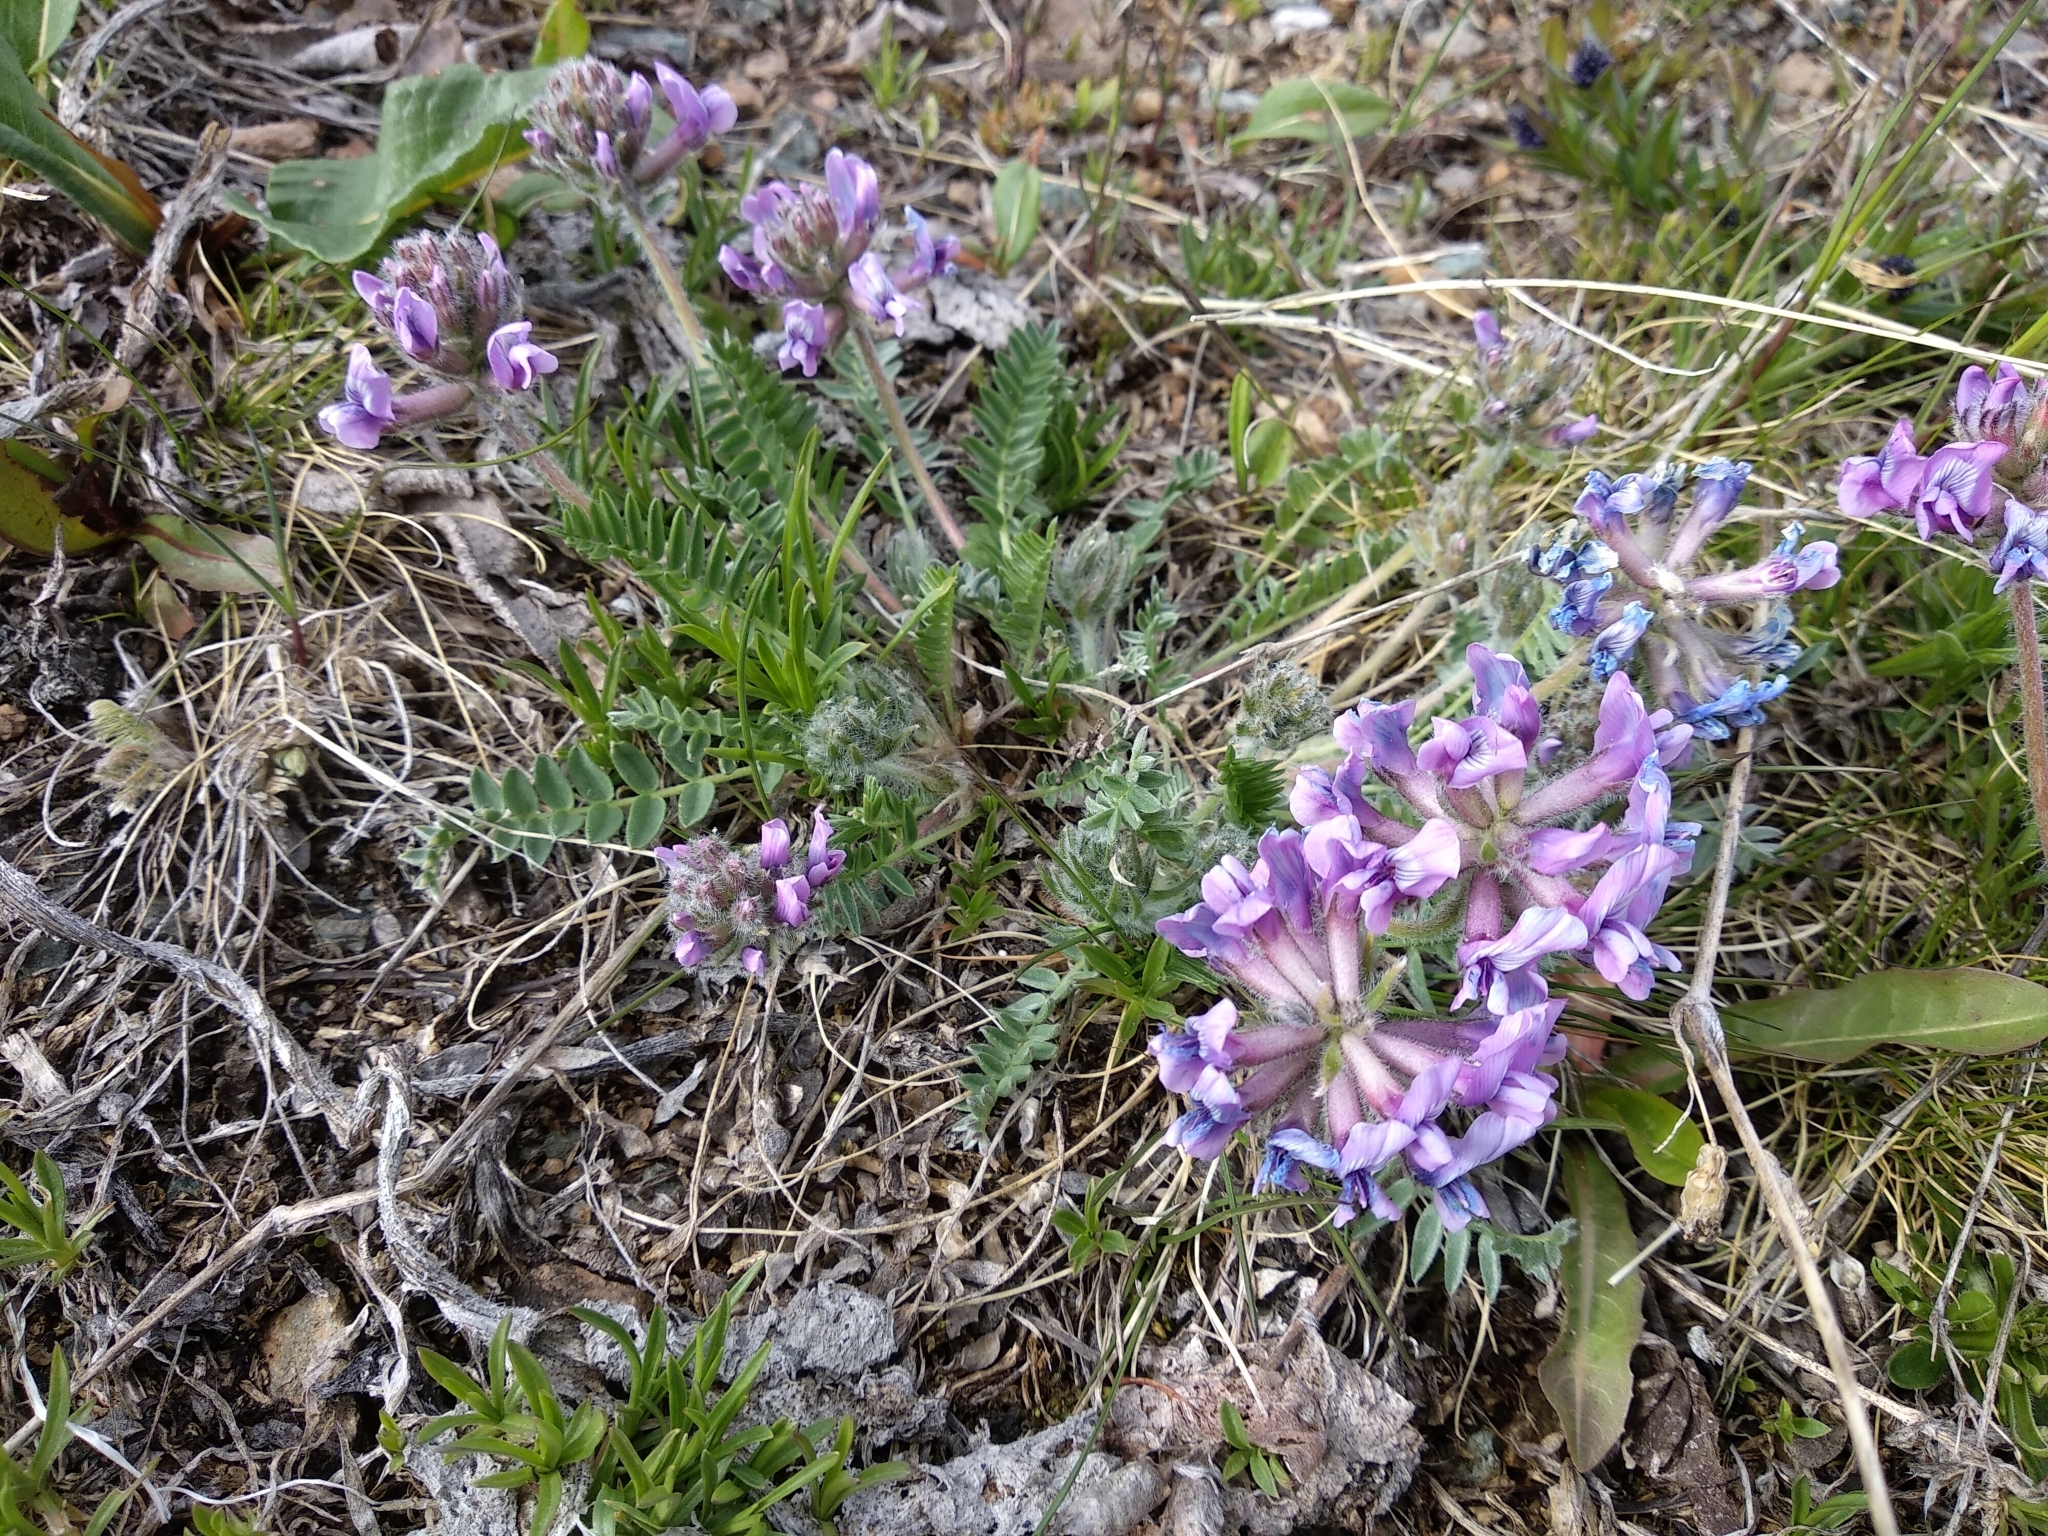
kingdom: Plantae
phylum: Tracheophyta
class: Magnoliopsida
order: Fabales
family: Fabaceae
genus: Oxytropis
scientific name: Oxytropis ambigua
